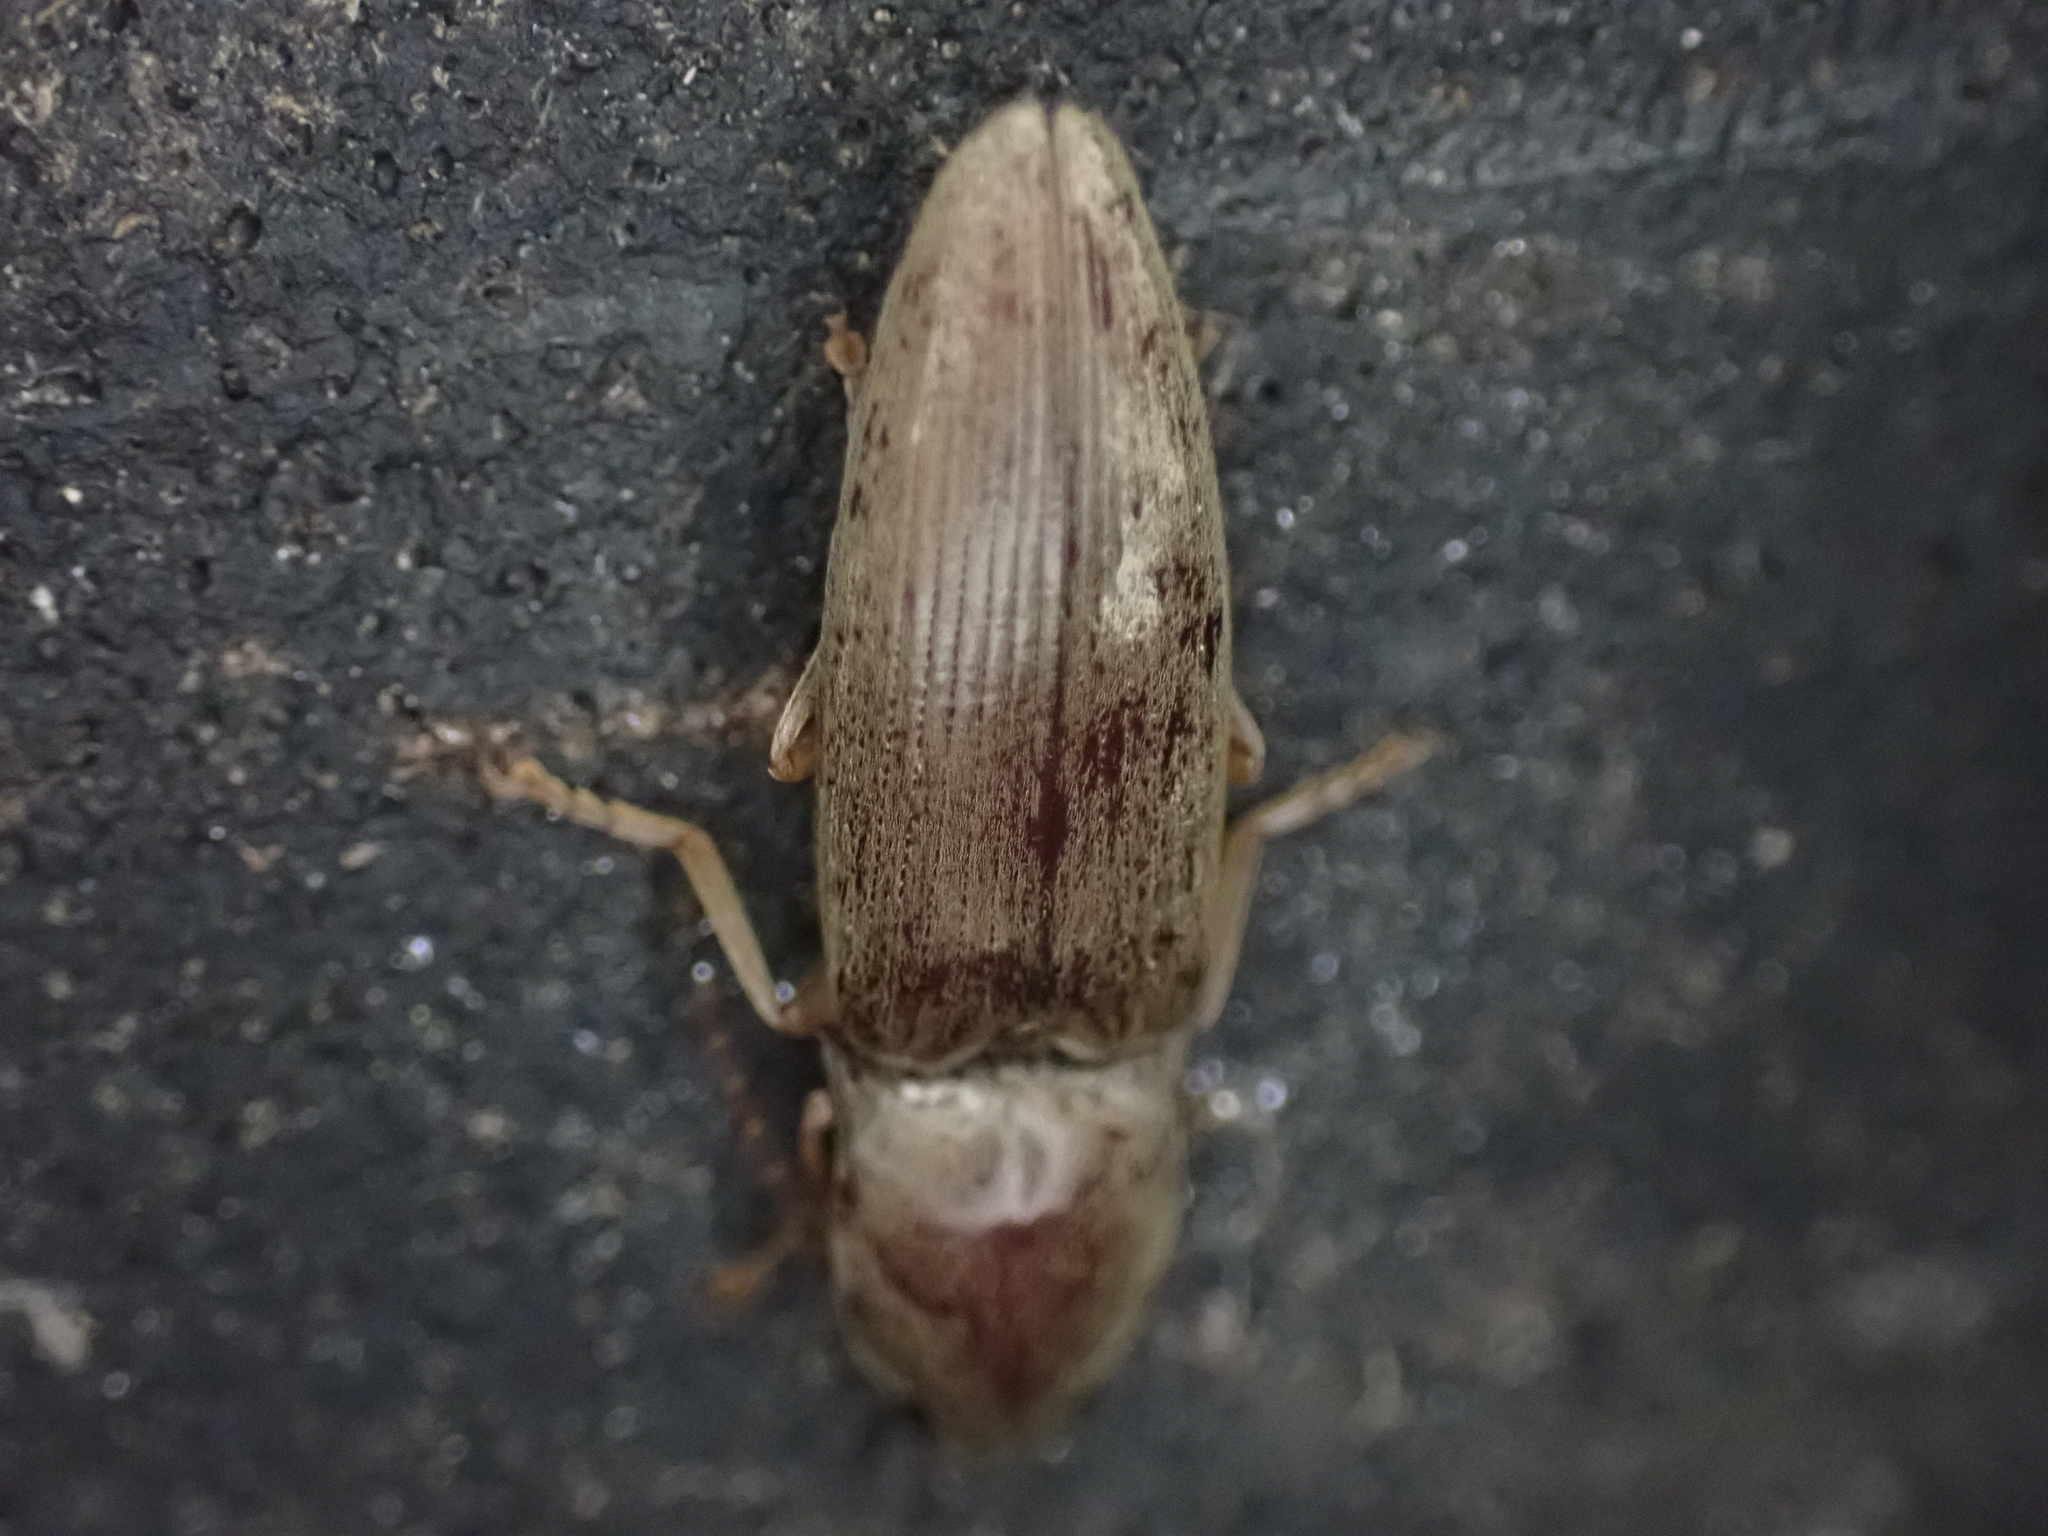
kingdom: Animalia
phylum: Arthropoda
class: Insecta
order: Coleoptera
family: Elateridae
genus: Monocrepidius
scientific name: Monocrepidius lividus
